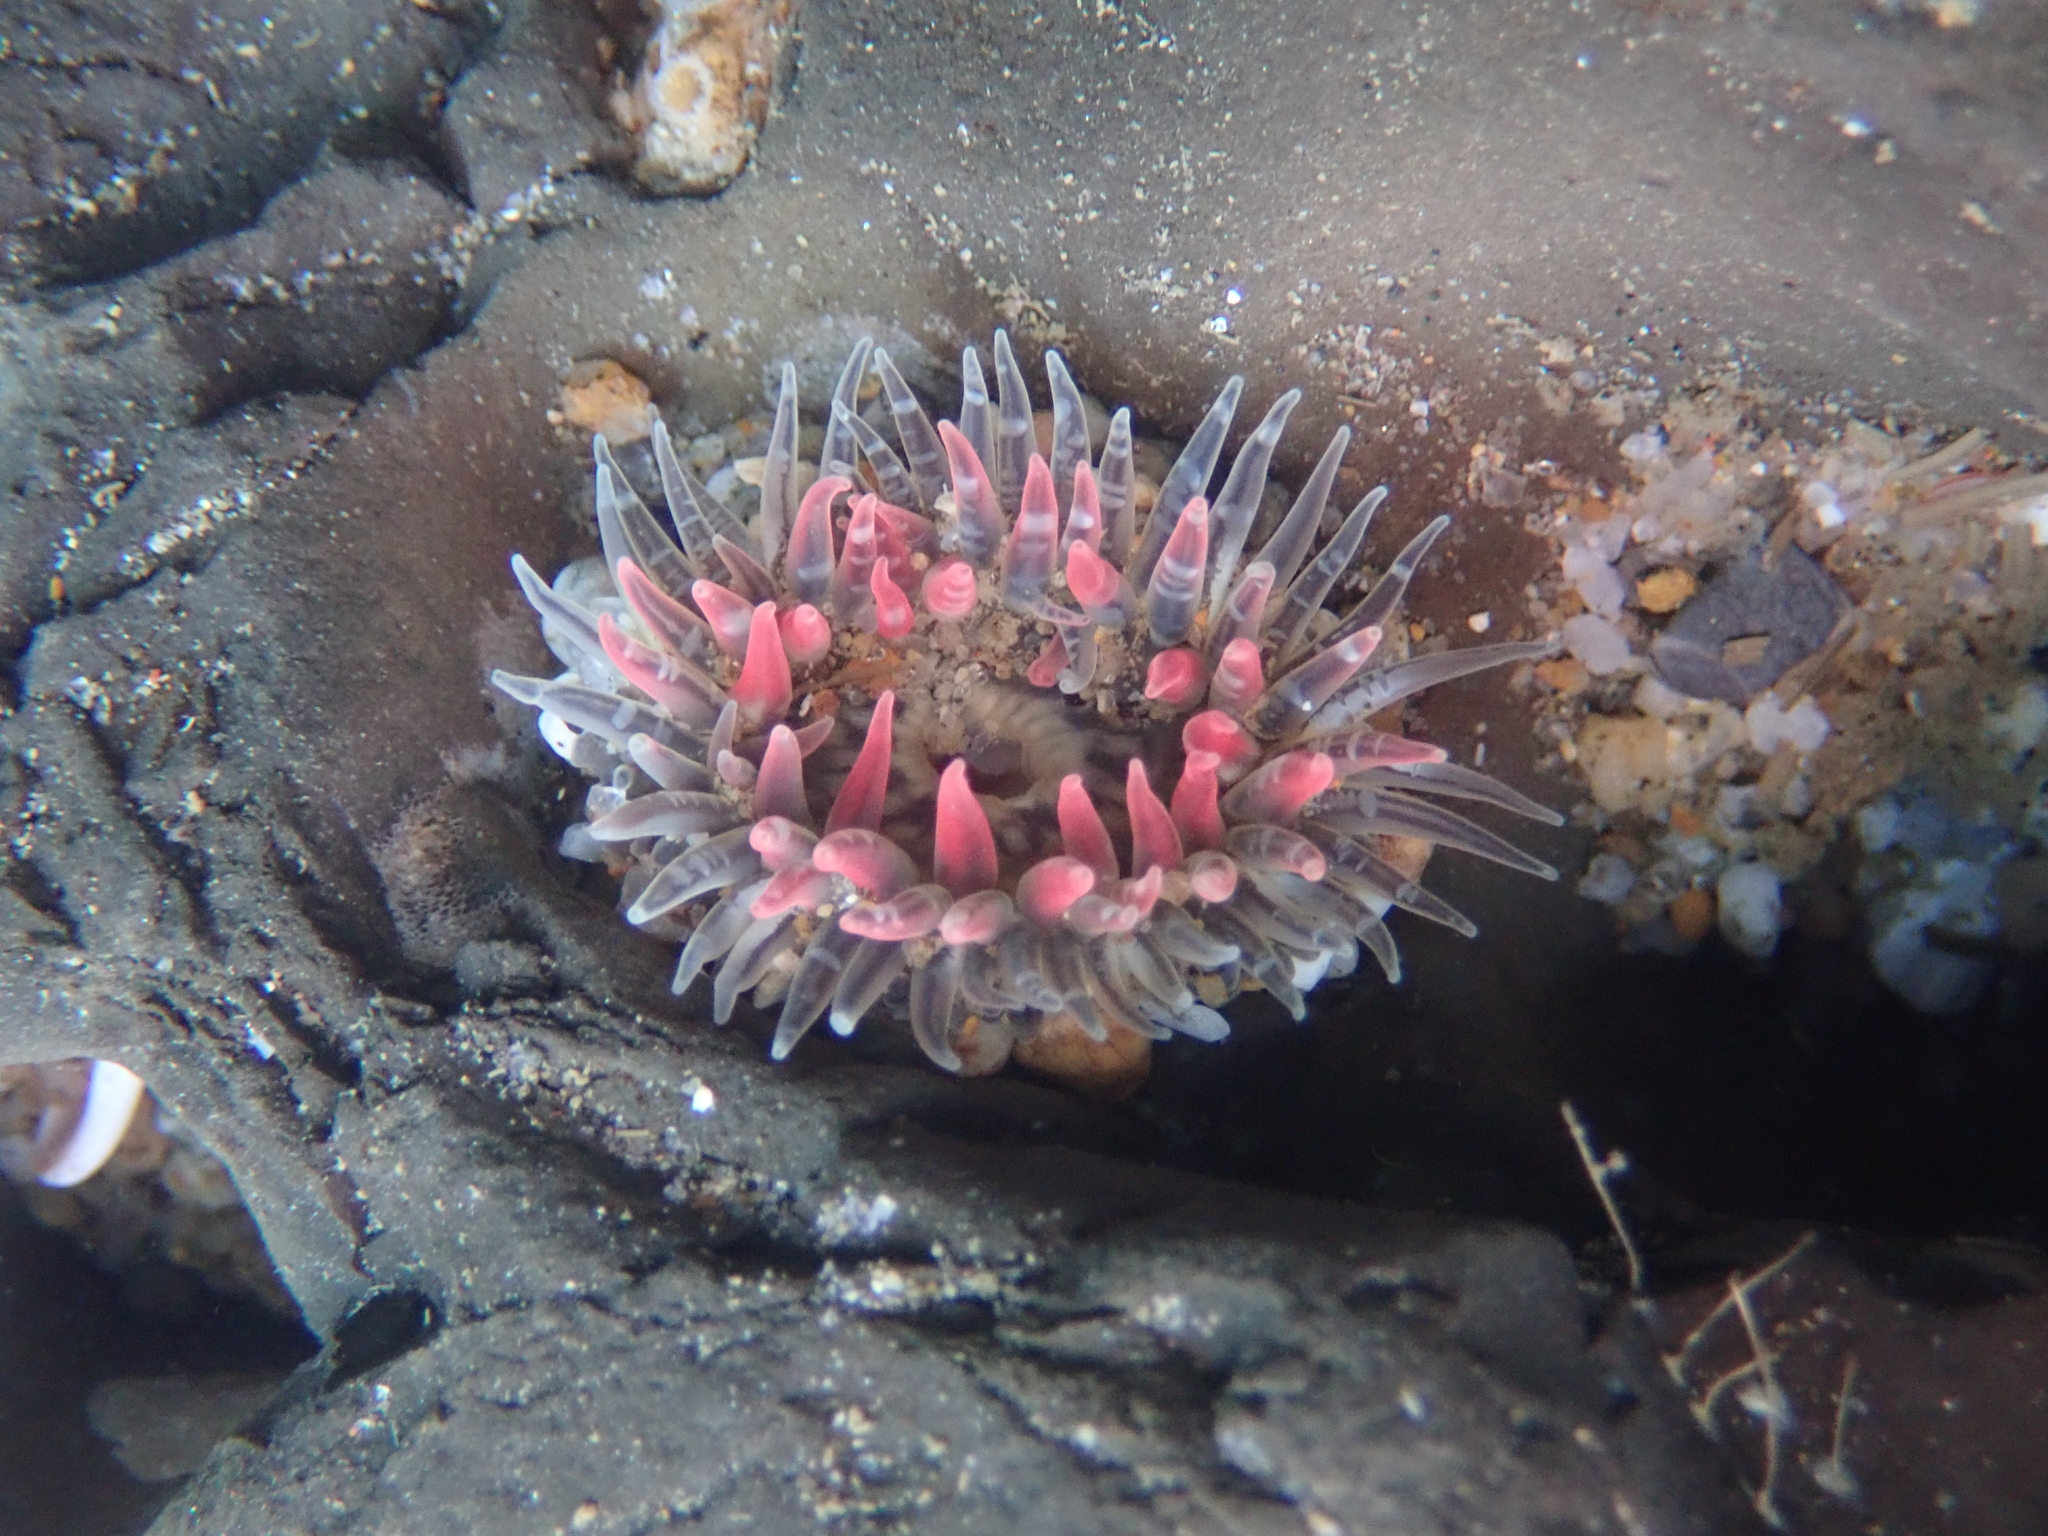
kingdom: Animalia
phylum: Cnidaria
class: Anthozoa
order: Actiniaria
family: Actiniidae
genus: Anthopleura
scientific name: Anthopleura artemisia
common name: Buried sea anemone
